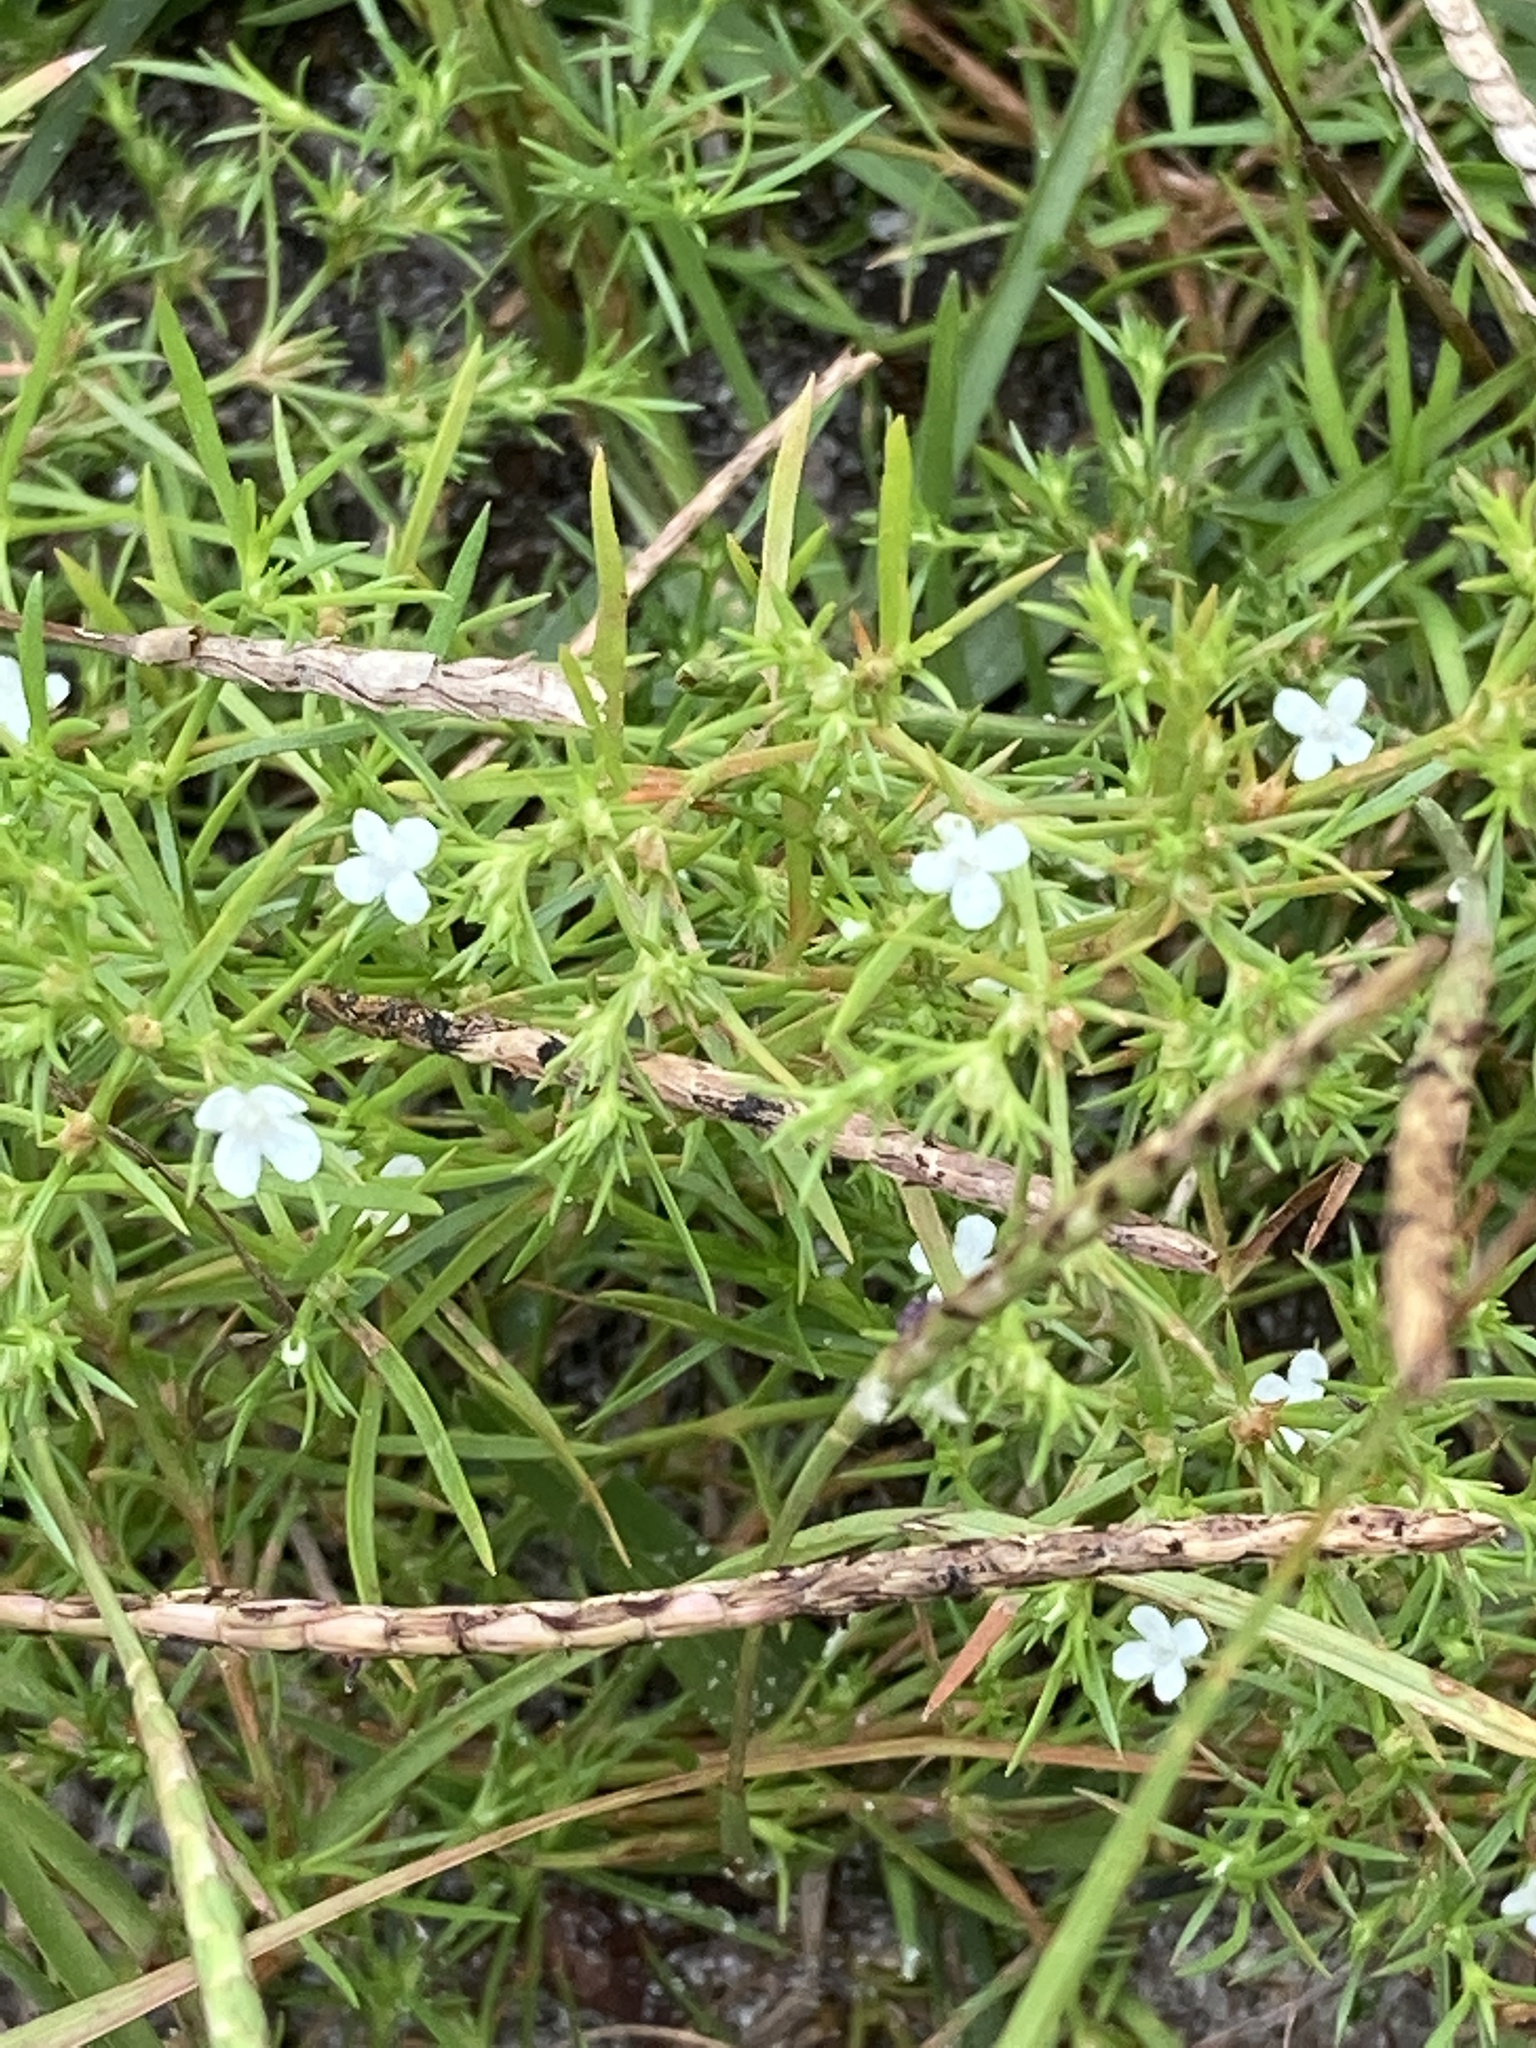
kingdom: Plantae
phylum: Tracheophyta
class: Magnoliopsida
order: Lamiales
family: Tetrachondraceae
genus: Polypremum
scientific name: Polypremum procumbens
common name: Juniper-leaf
